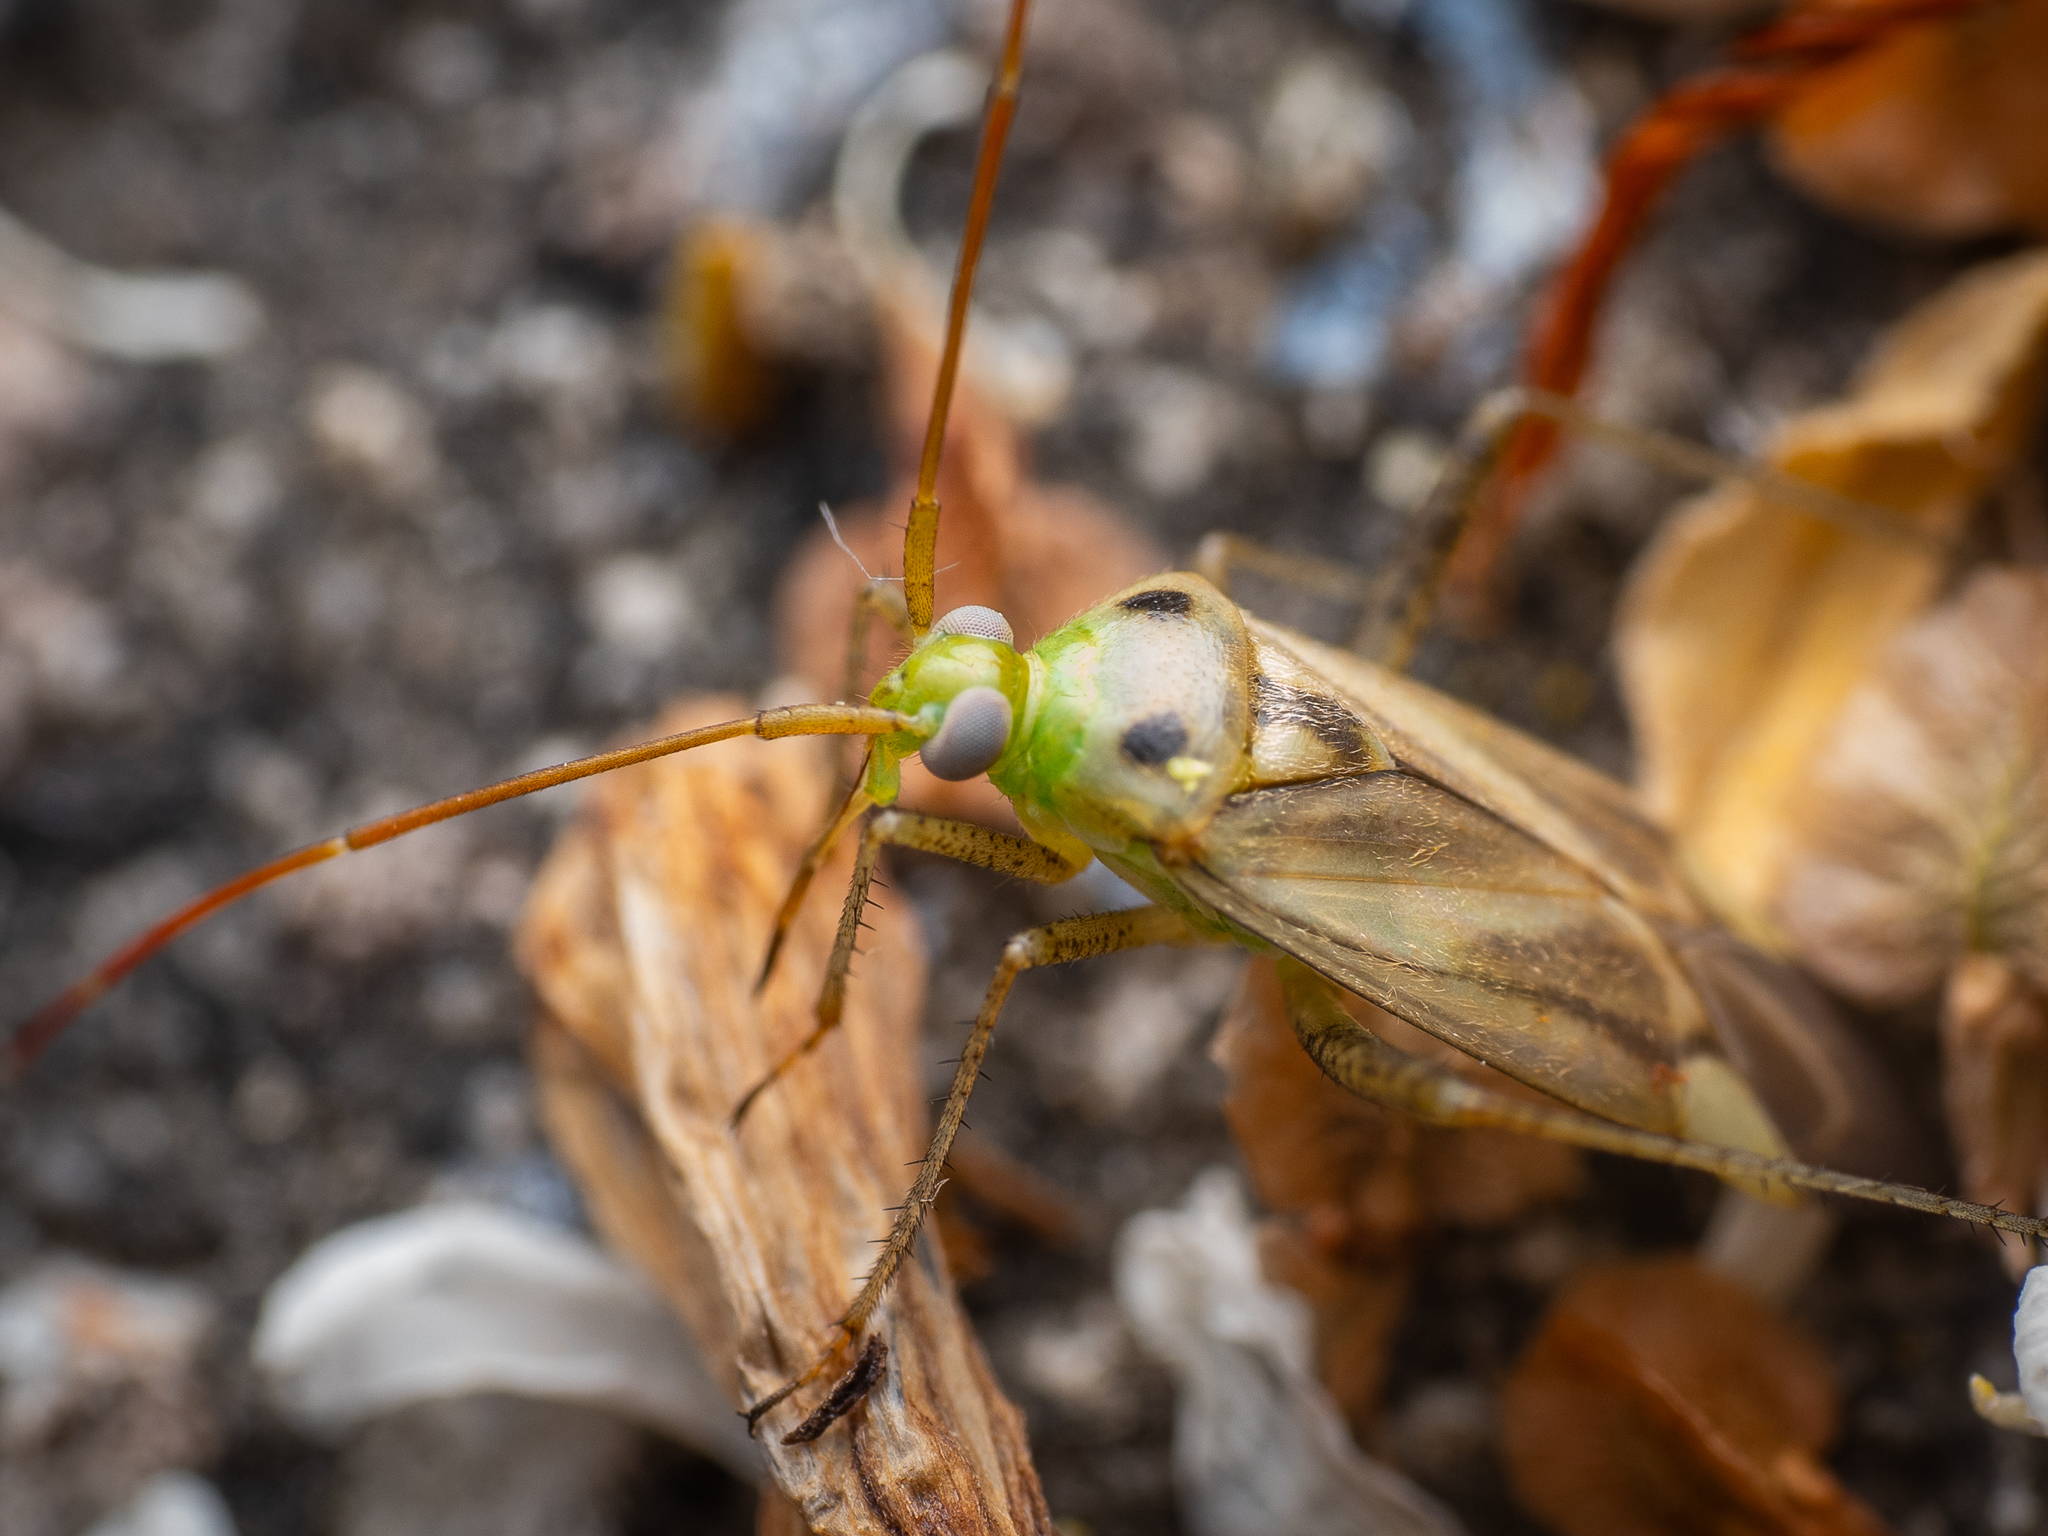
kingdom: Animalia
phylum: Arthropoda
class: Insecta
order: Hemiptera
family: Miridae
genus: Adelphocoris
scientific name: Adelphocoris lineolatus
